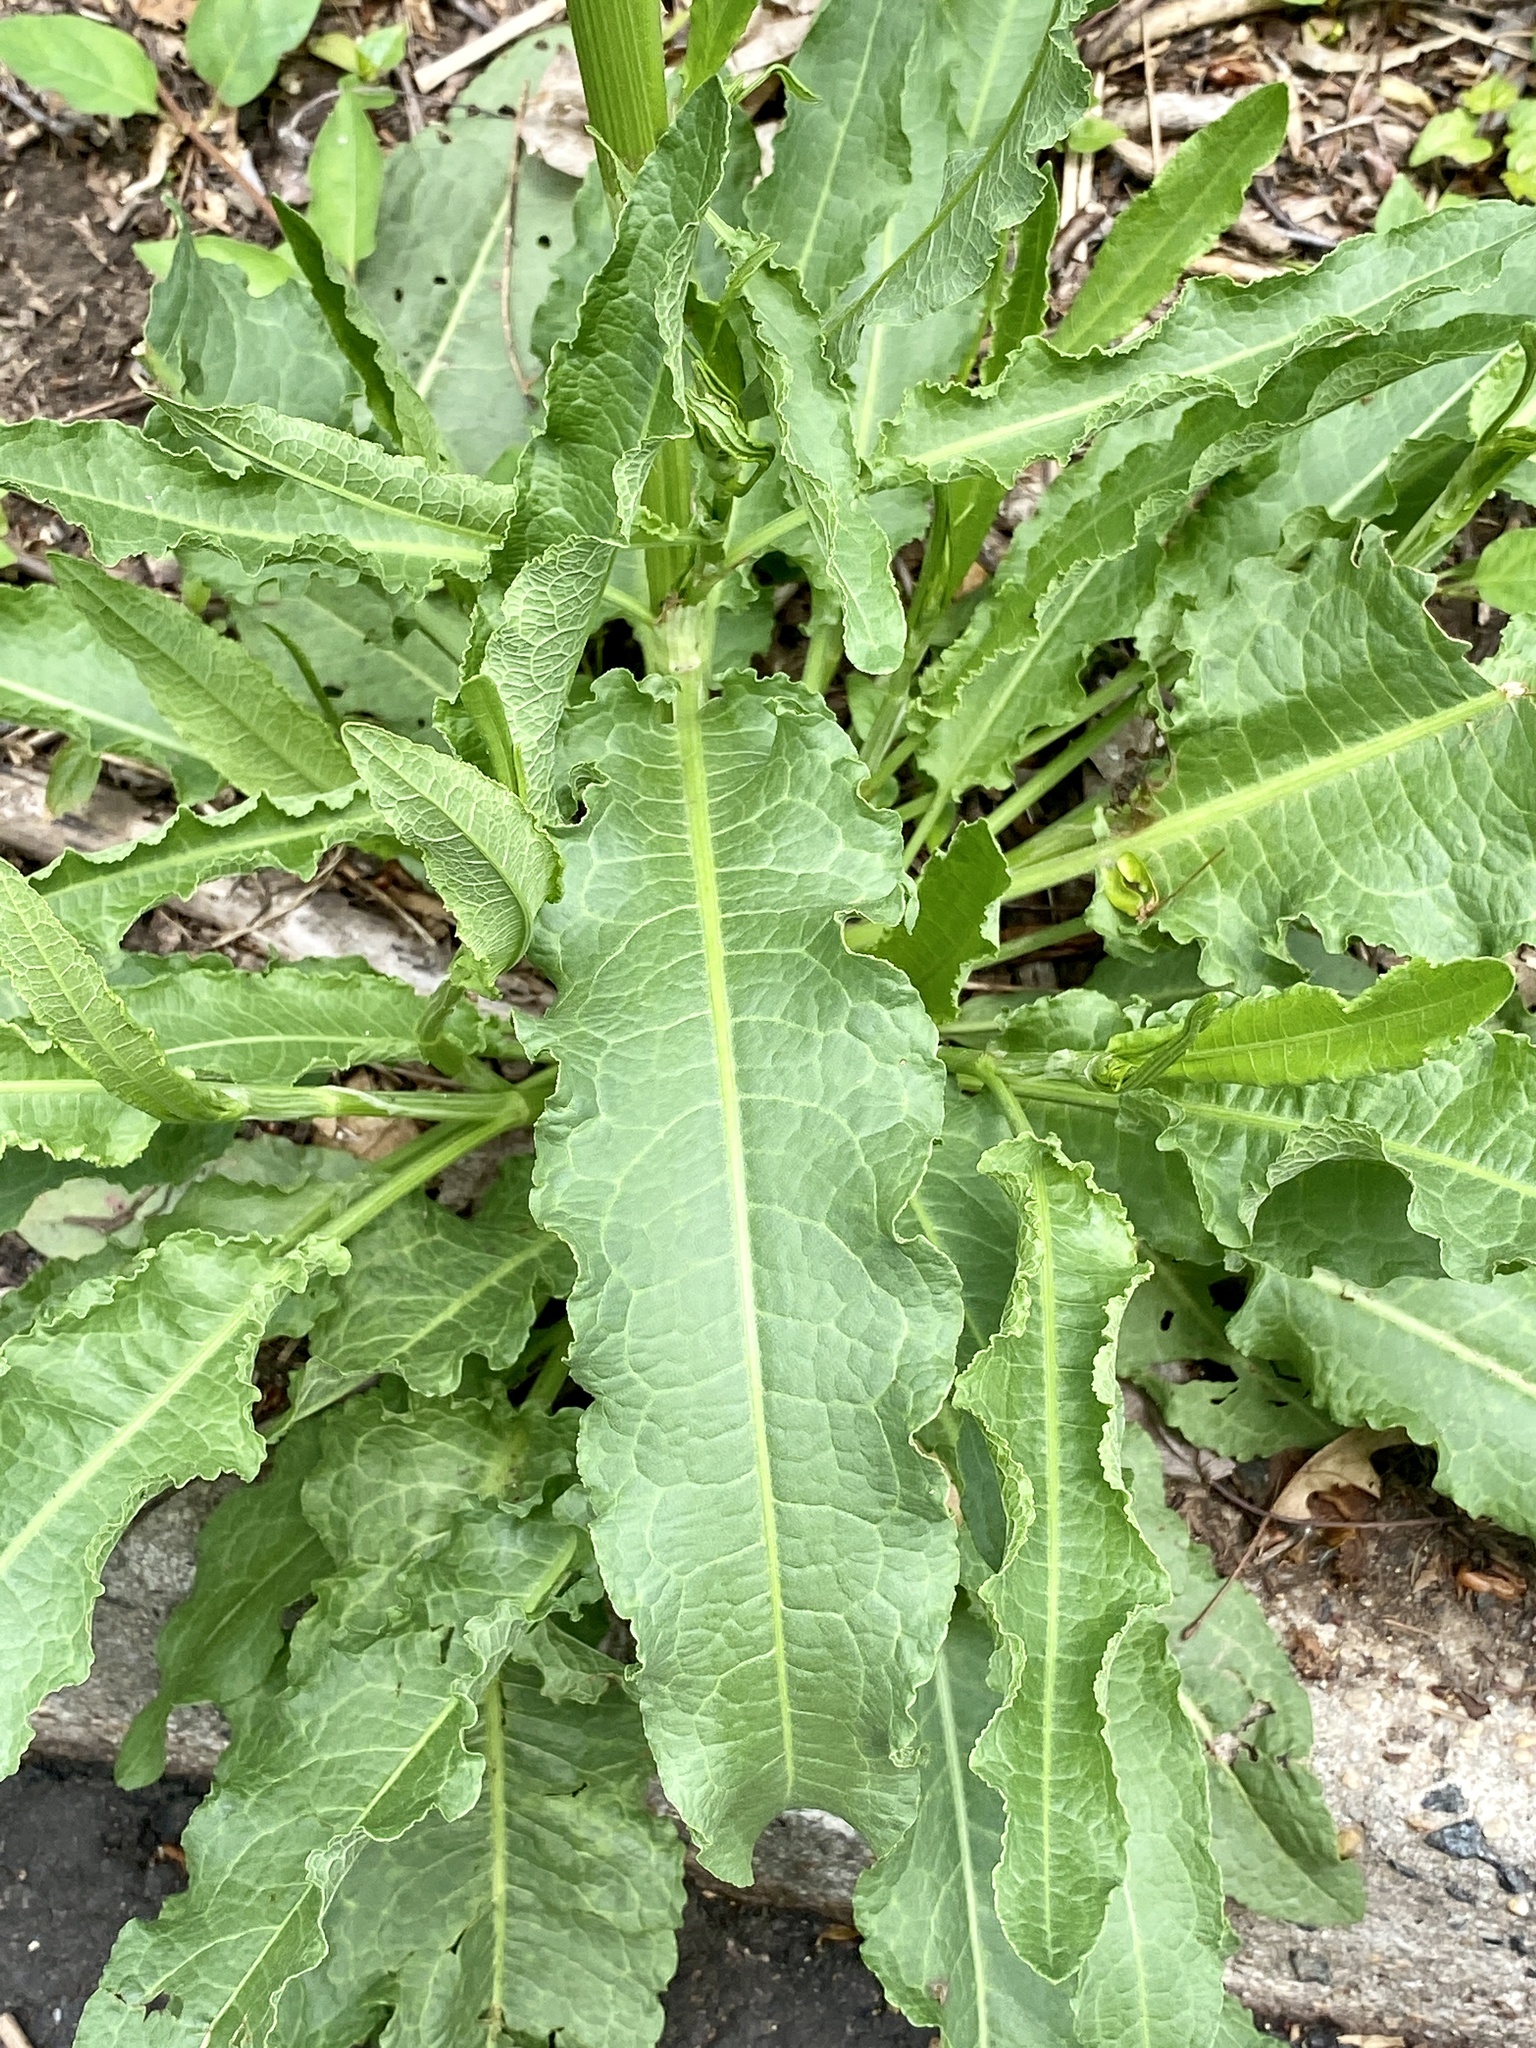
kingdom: Plantae
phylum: Tracheophyta
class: Magnoliopsida
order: Caryophyllales
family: Polygonaceae
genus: Rumex
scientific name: Rumex crispus
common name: Curled dock
